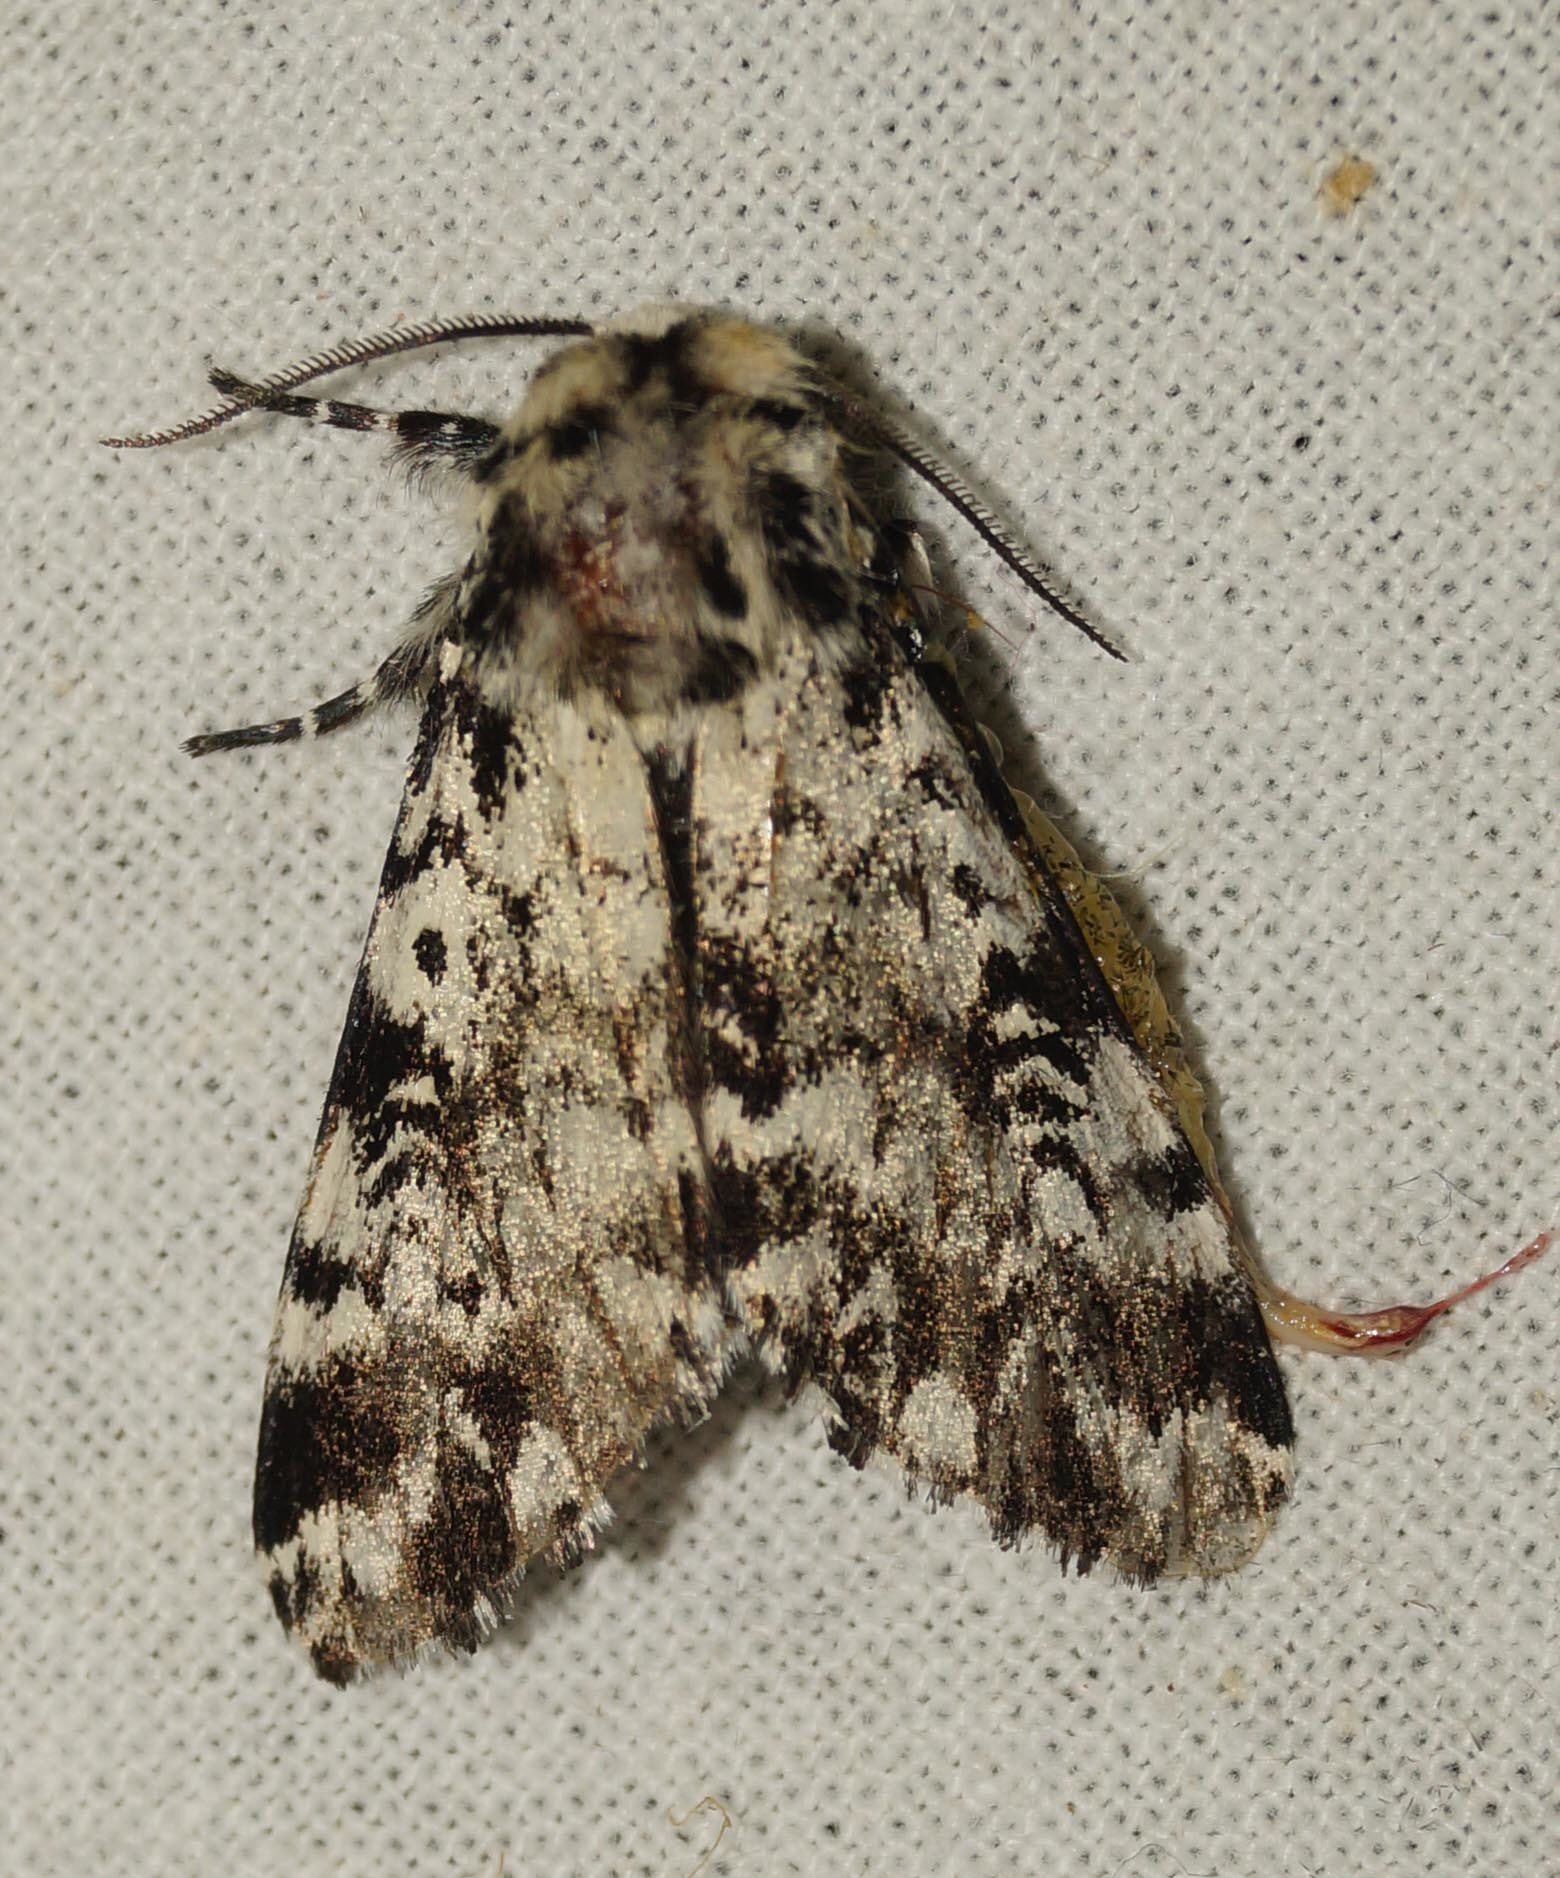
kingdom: Animalia
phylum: Arthropoda
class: Insecta
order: Lepidoptera
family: Noctuidae
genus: Panthea
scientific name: Panthea coenobita
